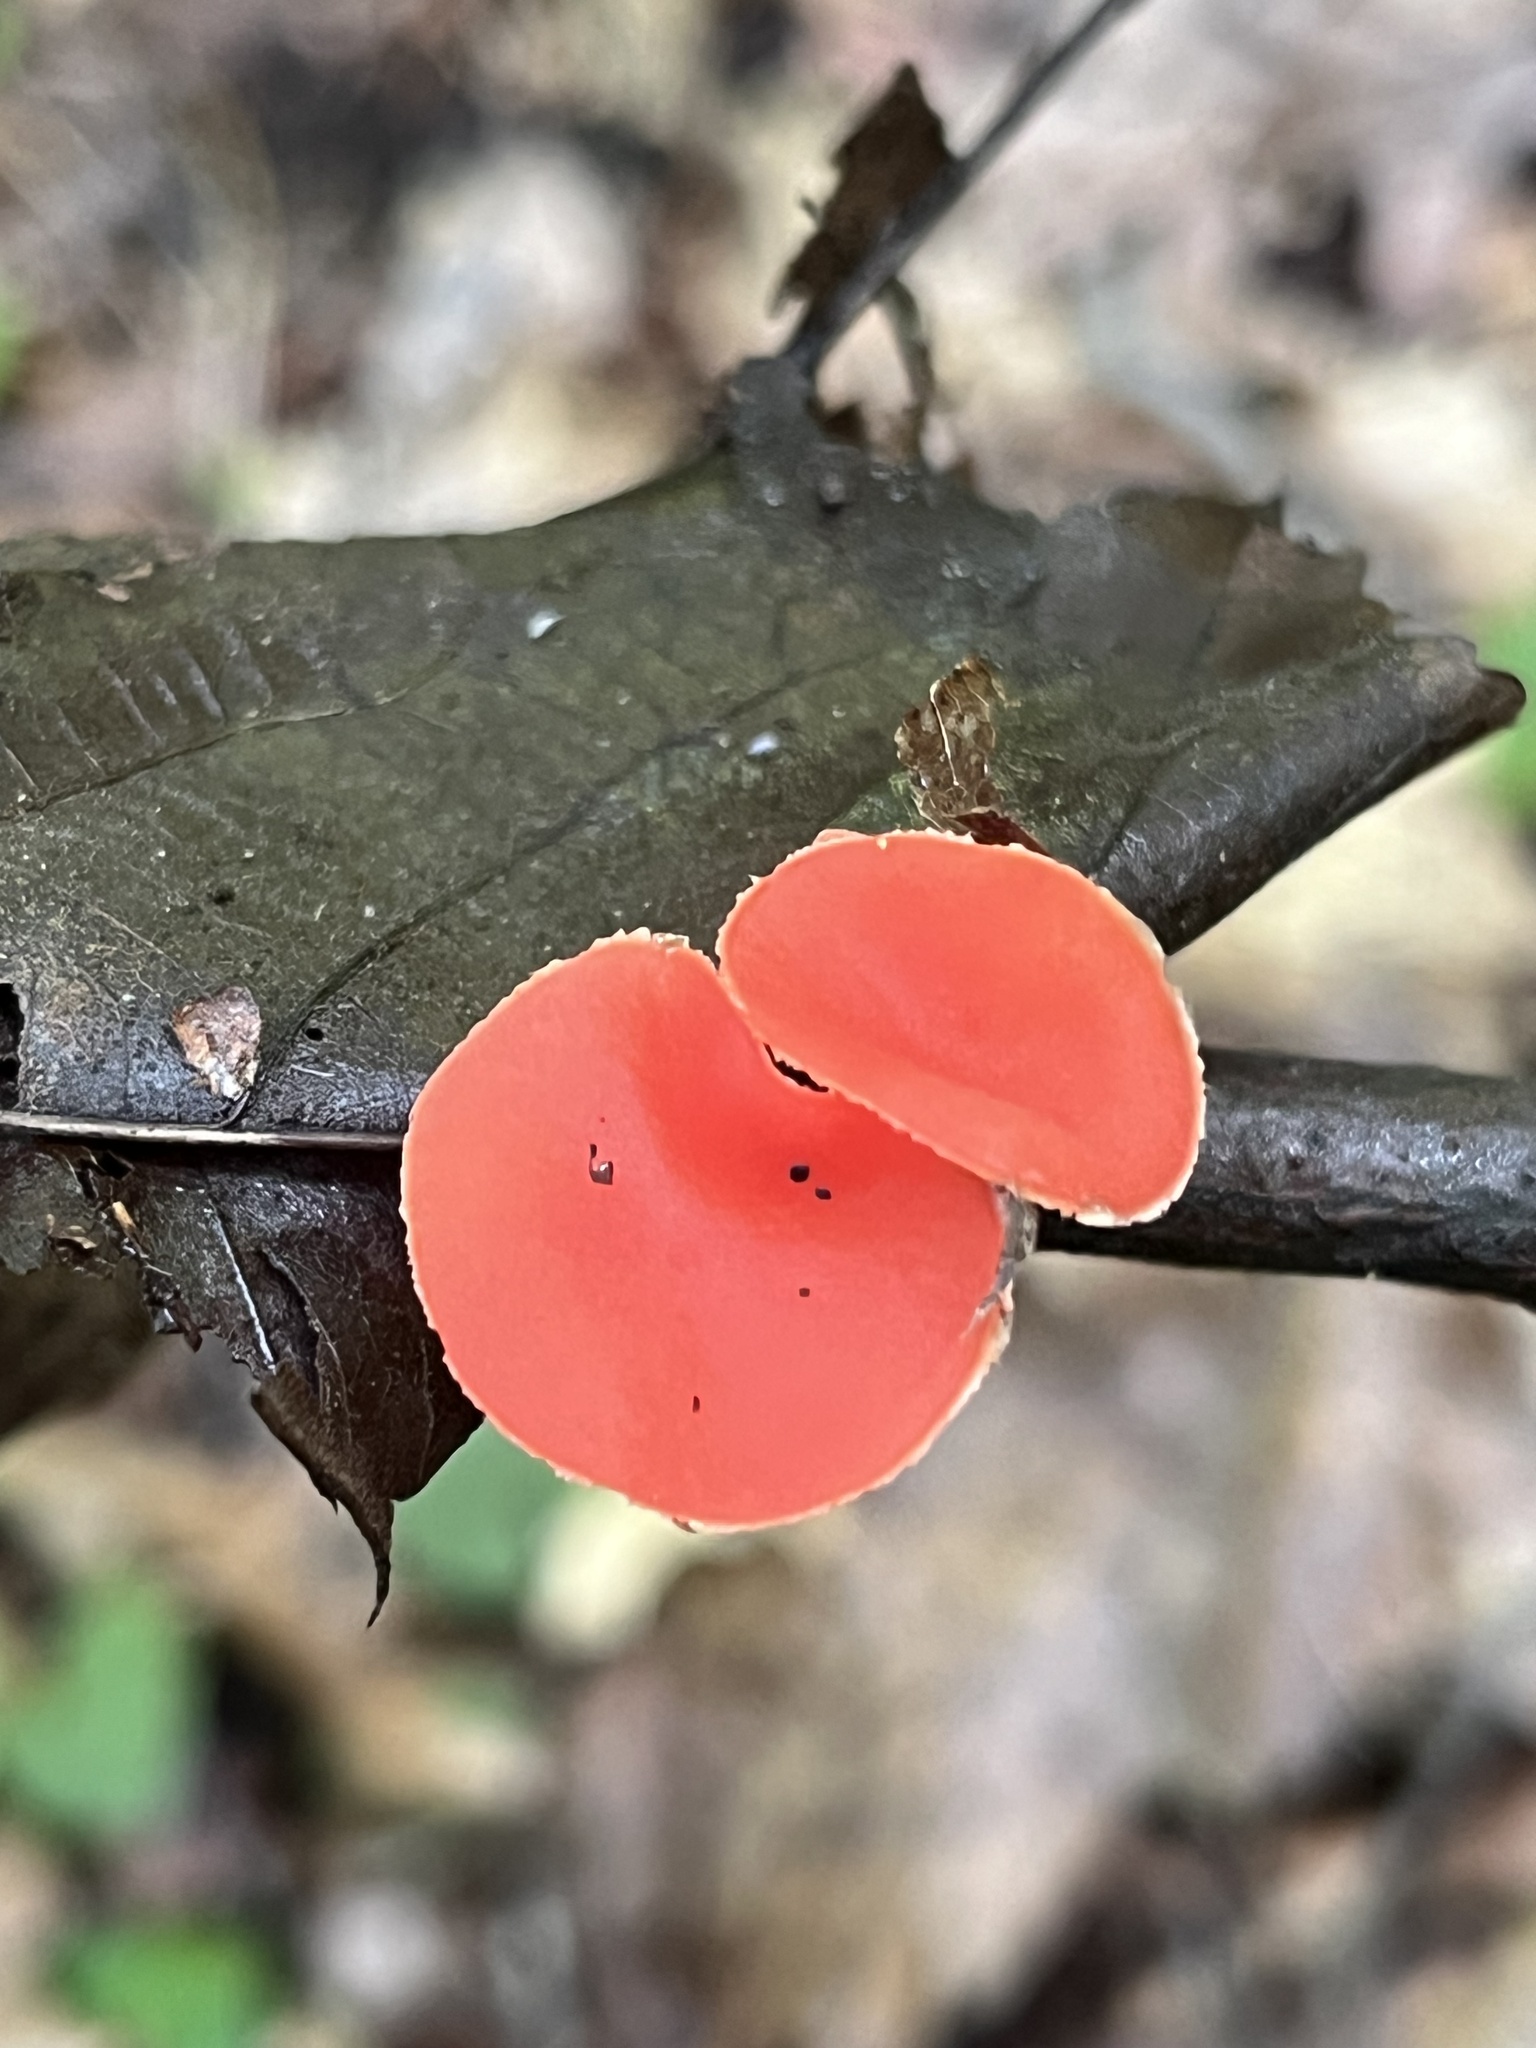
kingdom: Fungi
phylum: Ascomycota
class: Pezizomycetes
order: Pezizales
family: Sarcoscyphaceae
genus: Sarcoscypha
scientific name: Sarcoscypha occidentalis
